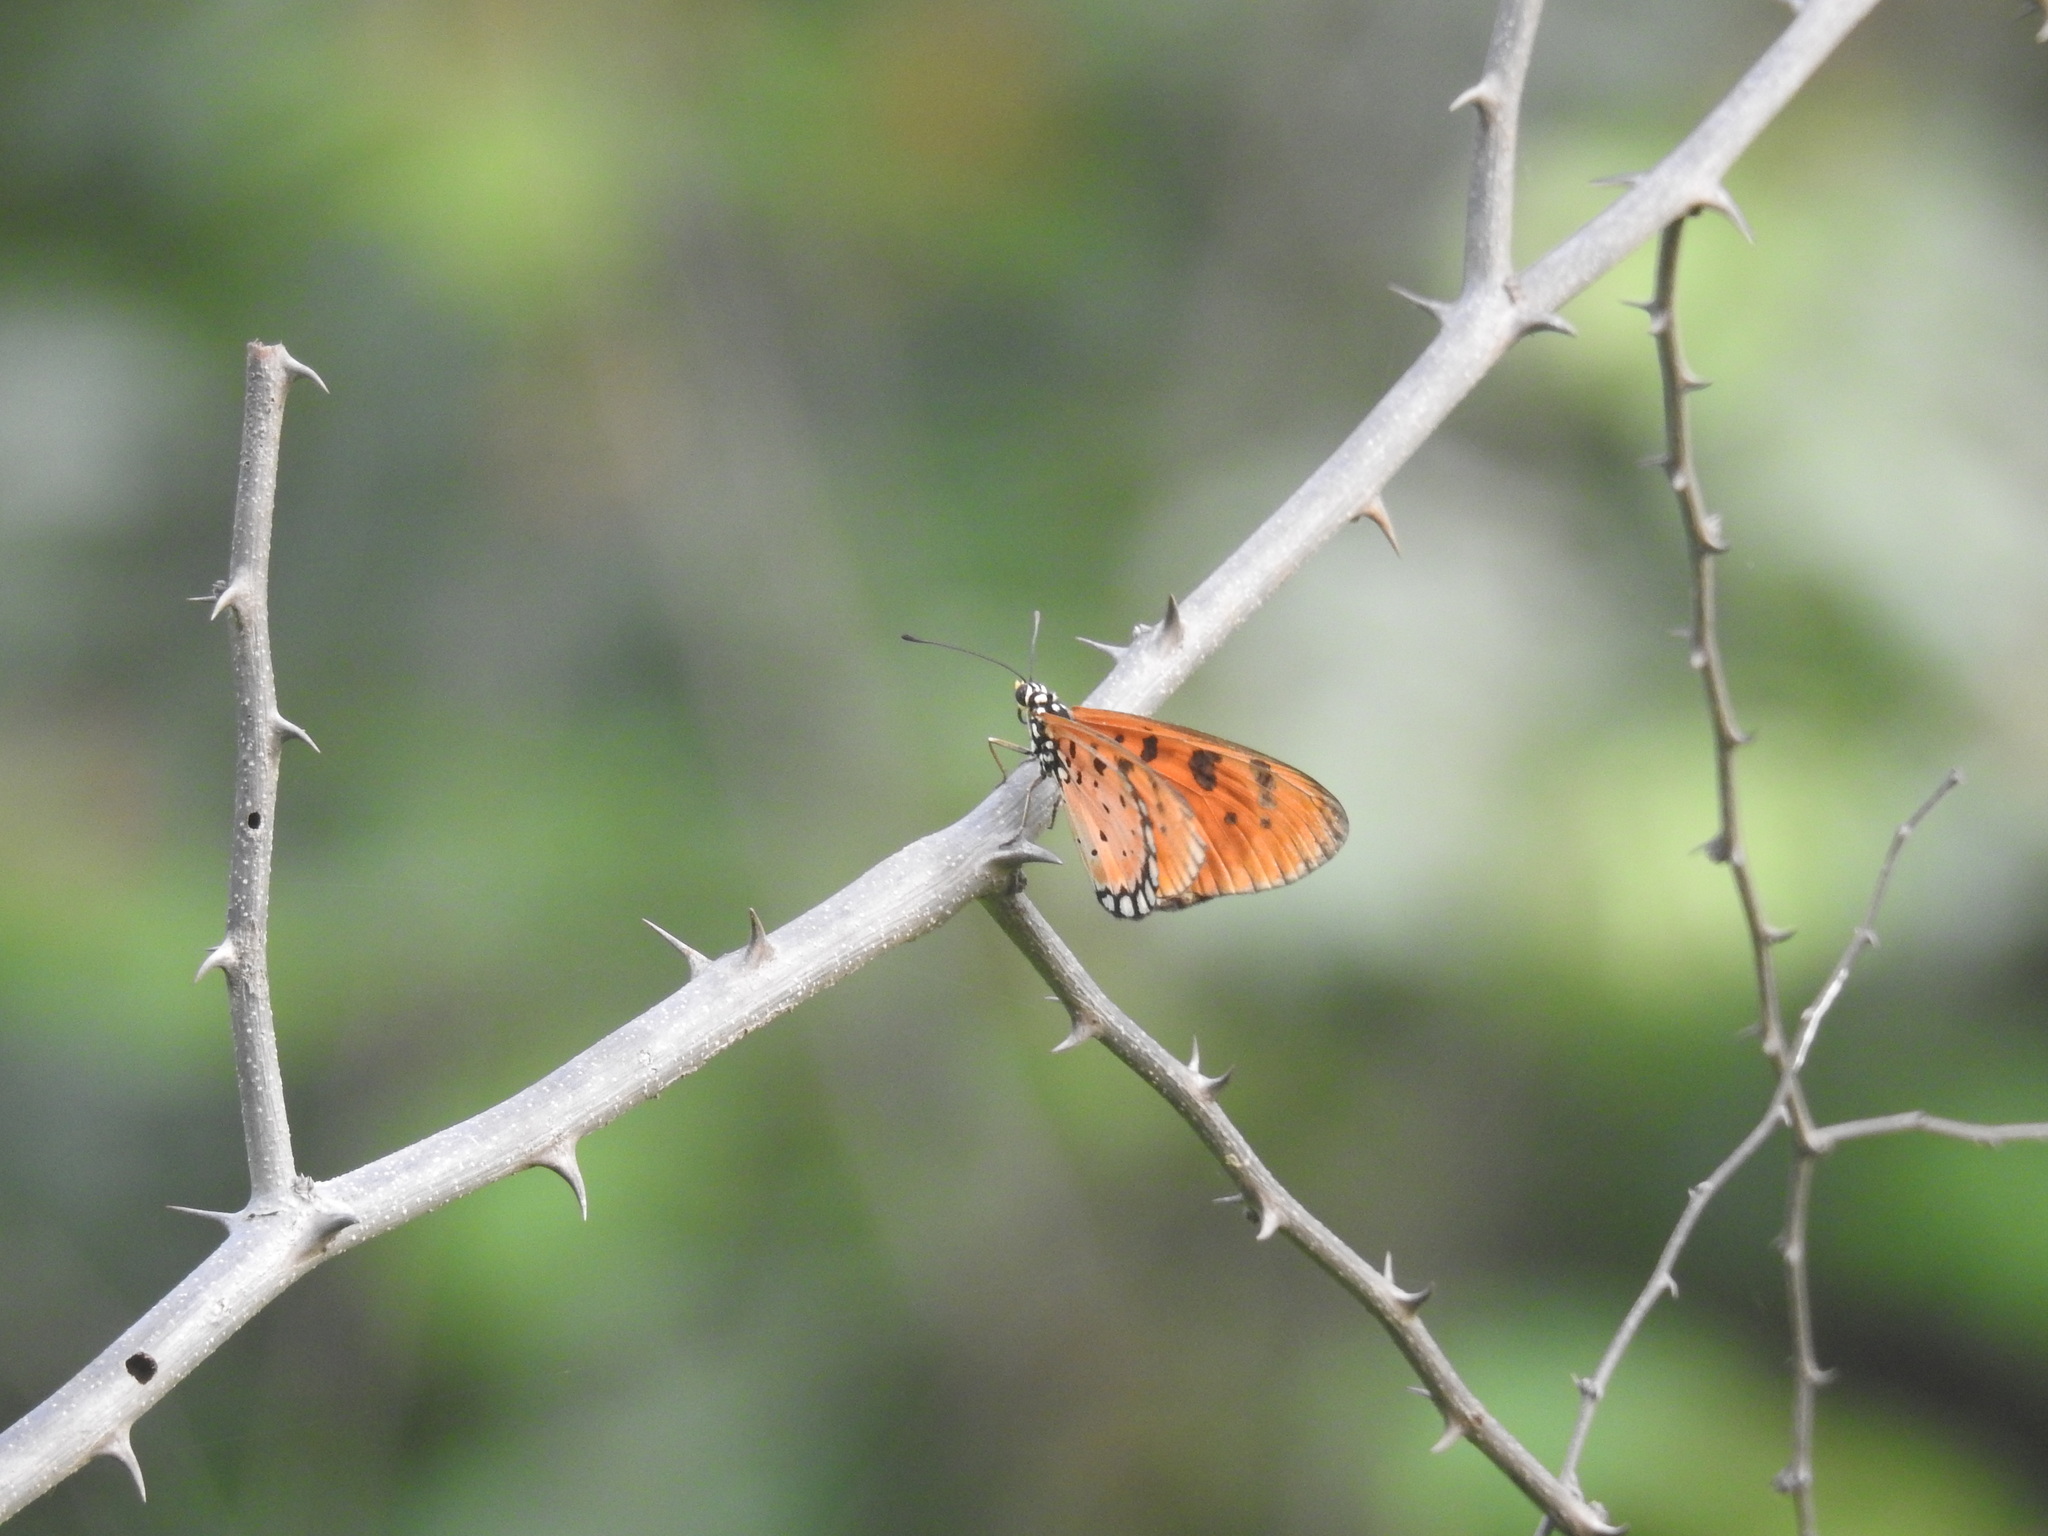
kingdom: Animalia
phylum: Arthropoda
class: Insecta
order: Lepidoptera
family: Nymphalidae
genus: Acraea
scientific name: Acraea terpsicore
